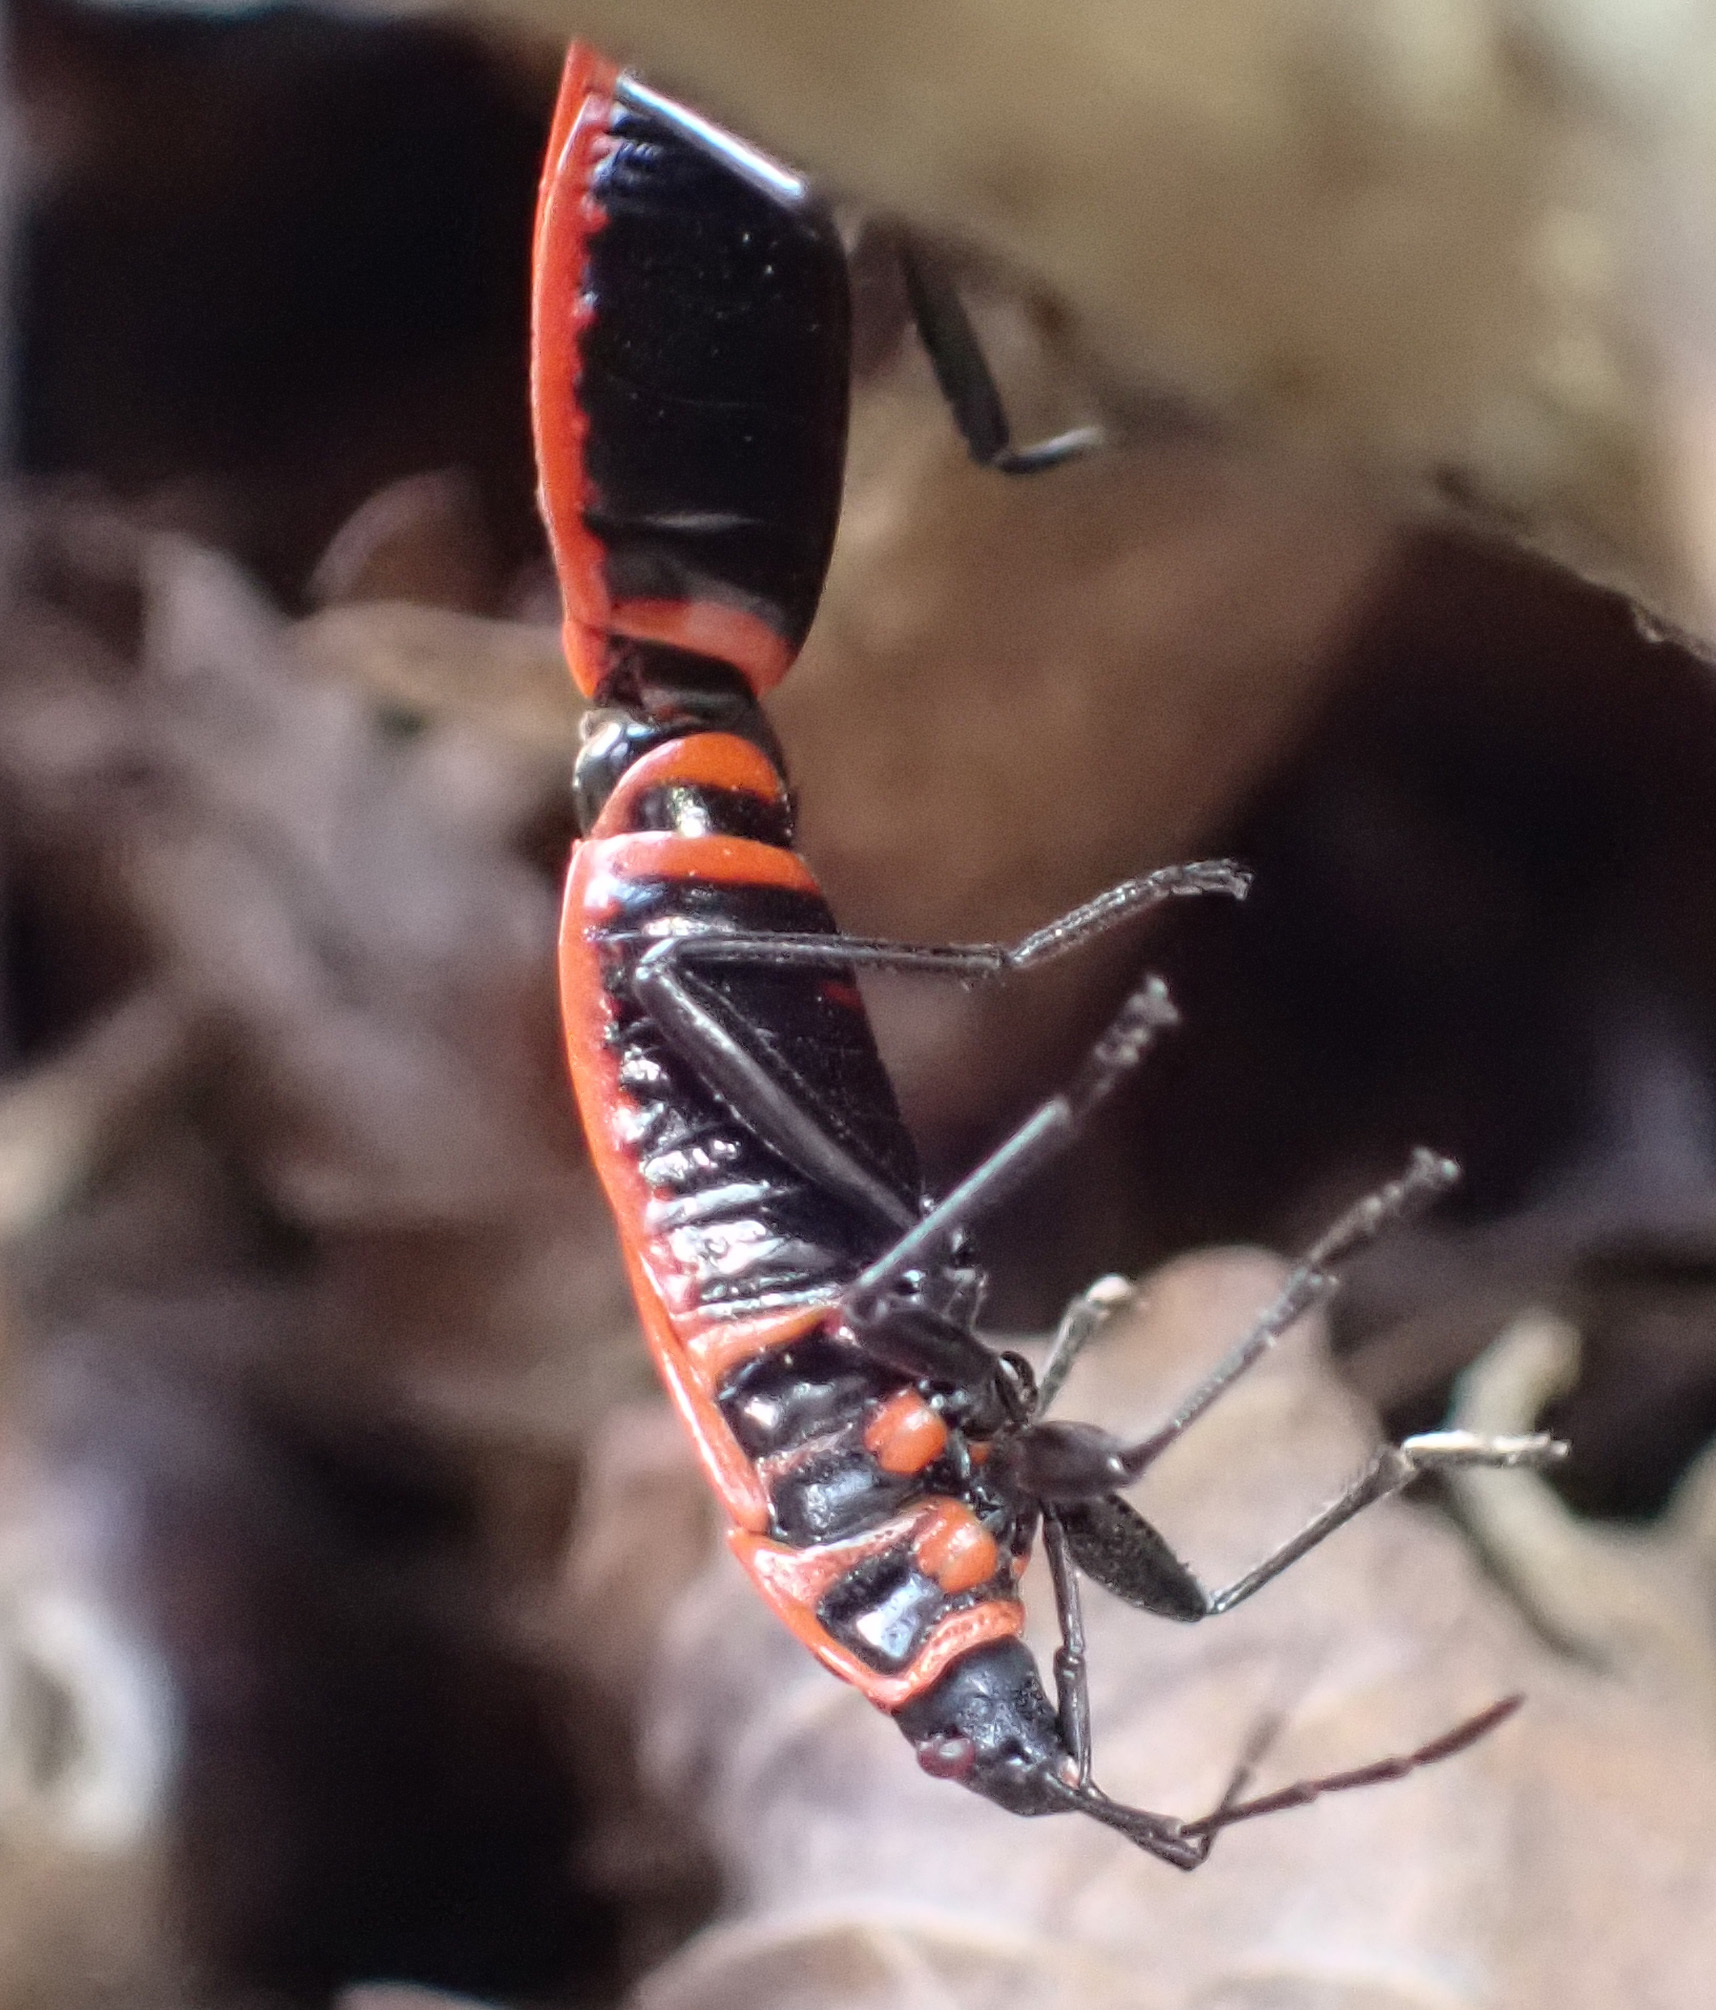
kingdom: Animalia
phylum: Arthropoda
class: Insecta
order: Hemiptera
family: Pyrrhocoridae
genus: Pyrrhocoris
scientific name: Pyrrhocoris apterus
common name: Firebug
